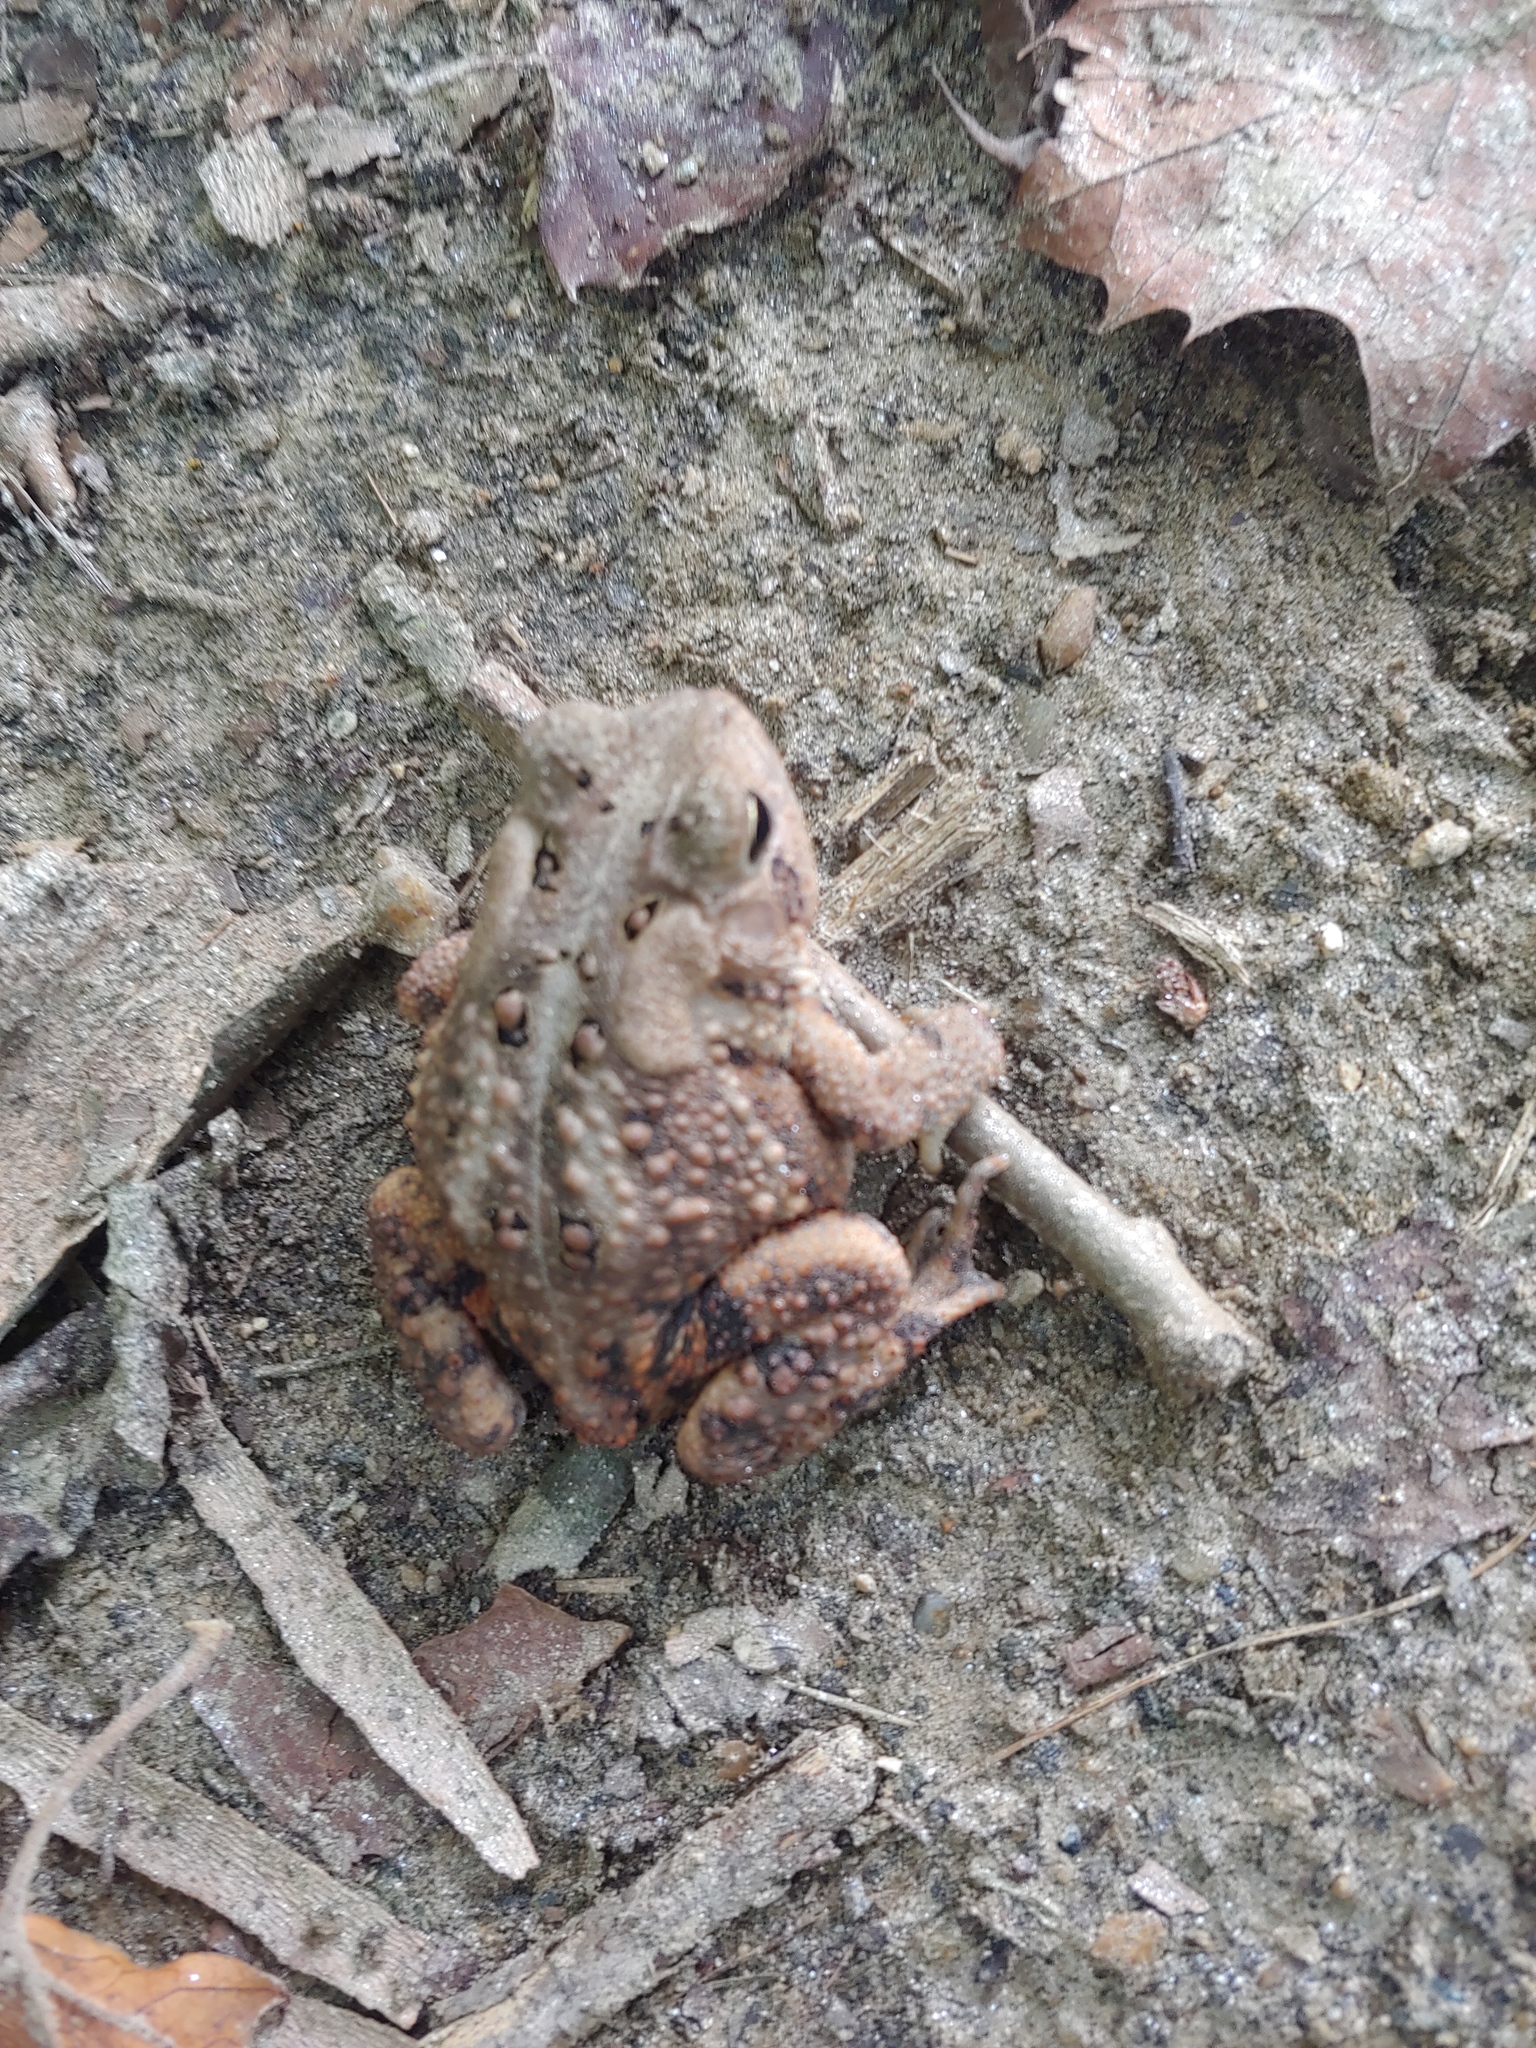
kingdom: Animalia
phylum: Chordata
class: Amphibia
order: Anura
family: Bufonidae
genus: Anaxyrus
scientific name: Anaxyrus americanus
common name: American toad
